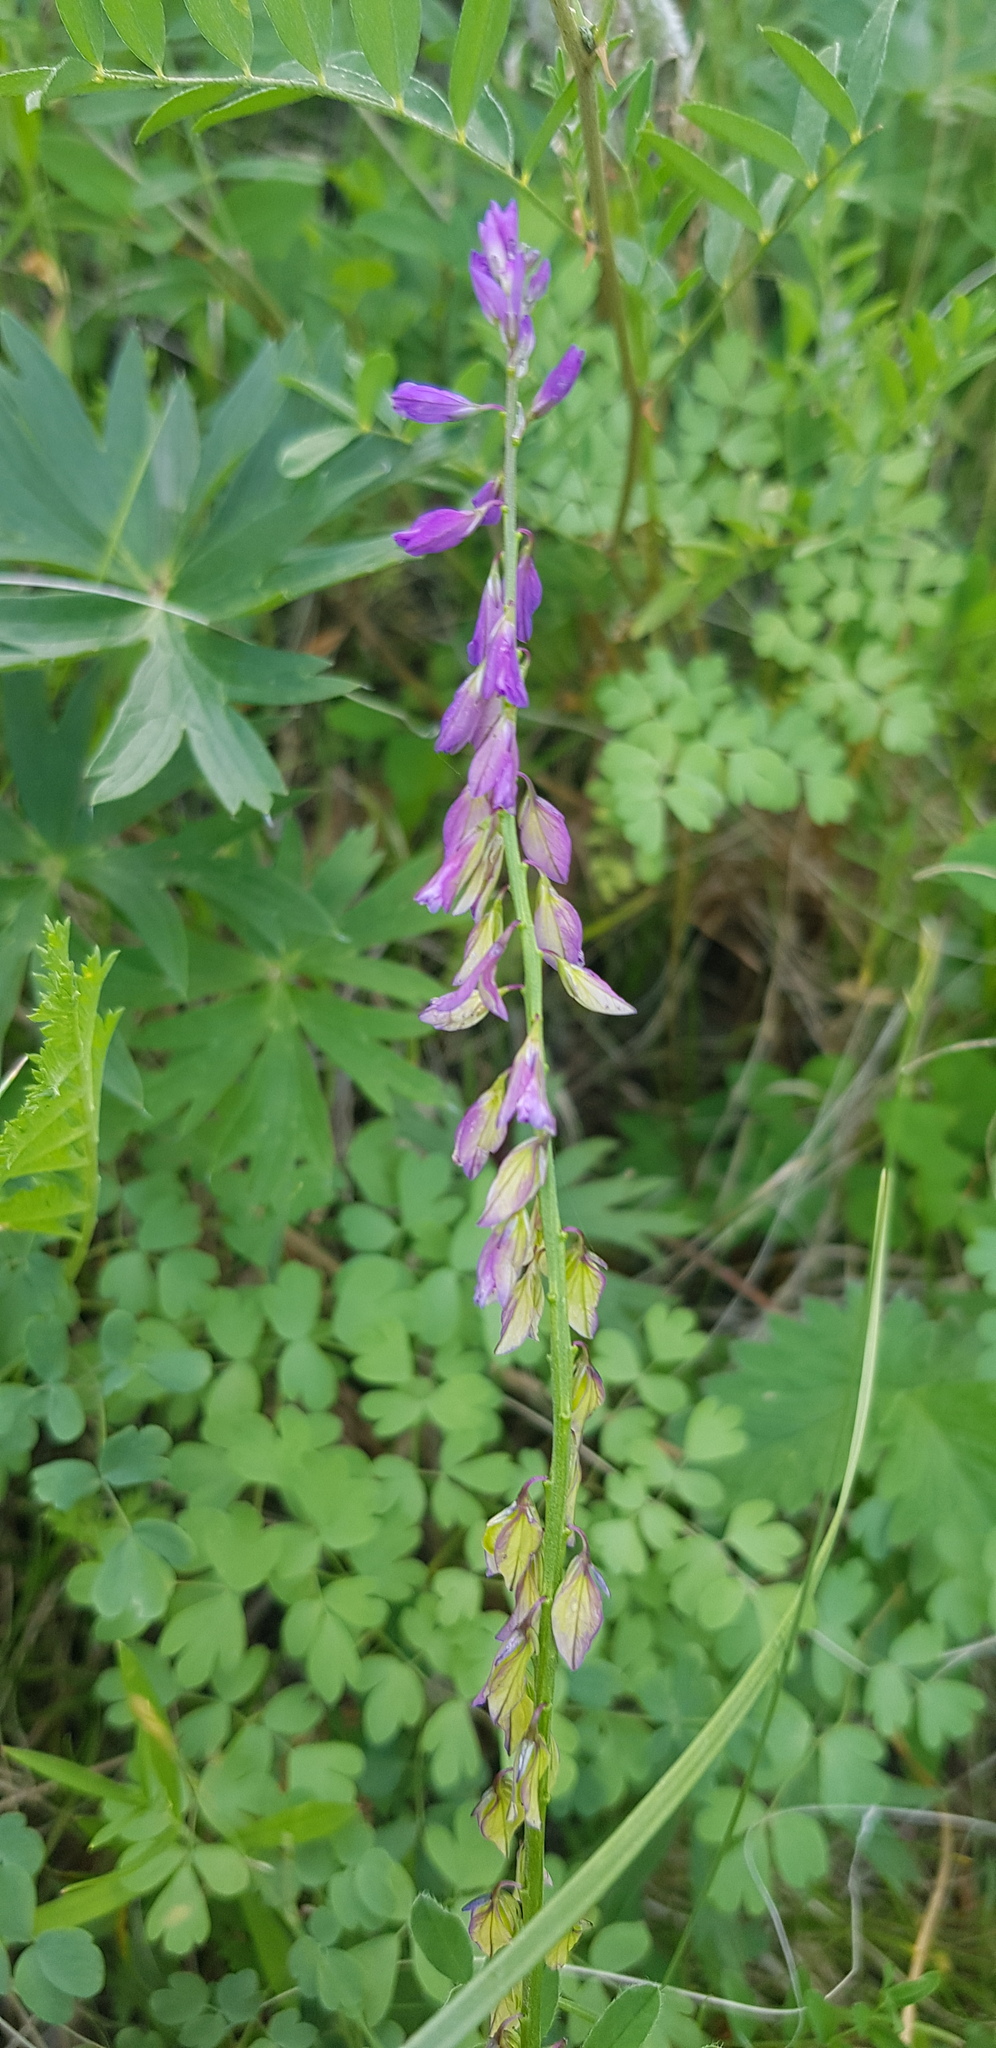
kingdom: Plantae
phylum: Tracheophyta
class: Magnoliopsida
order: Fabales
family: Polygalaceae
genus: Polygala
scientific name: Polygala comosa
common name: Tufted milkwort
